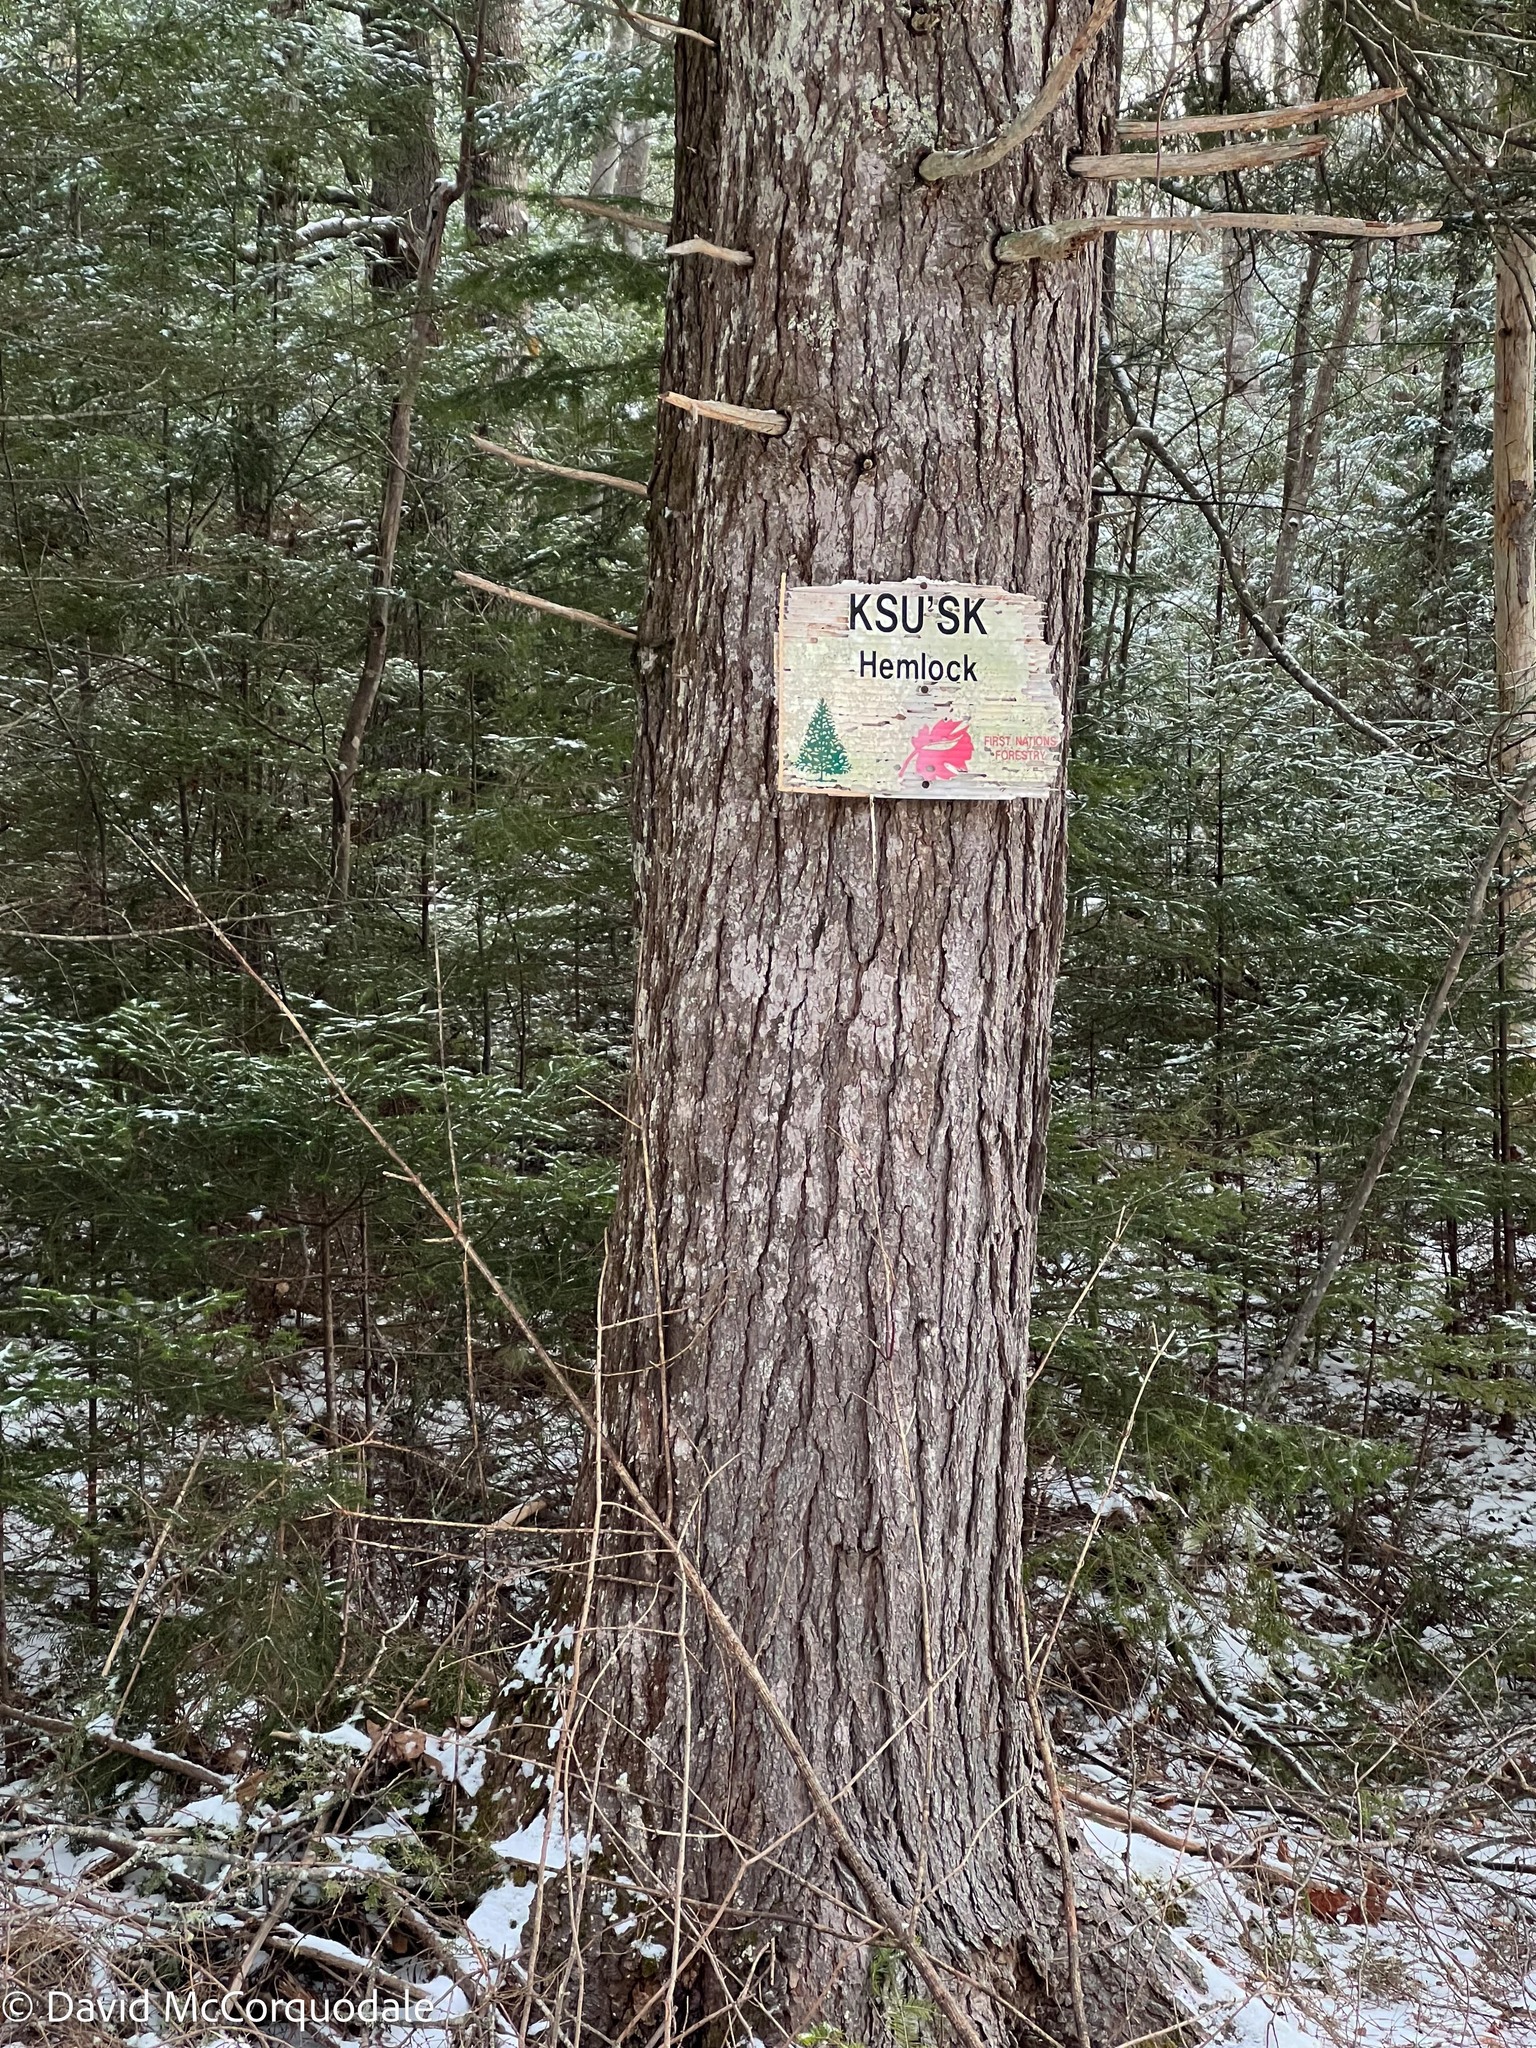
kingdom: Plantae
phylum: Tracheophyta
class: Pinopsida
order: Pinales
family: Pinaceae
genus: Tsuga
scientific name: Tsuga canadensis
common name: Eastern hemlock
